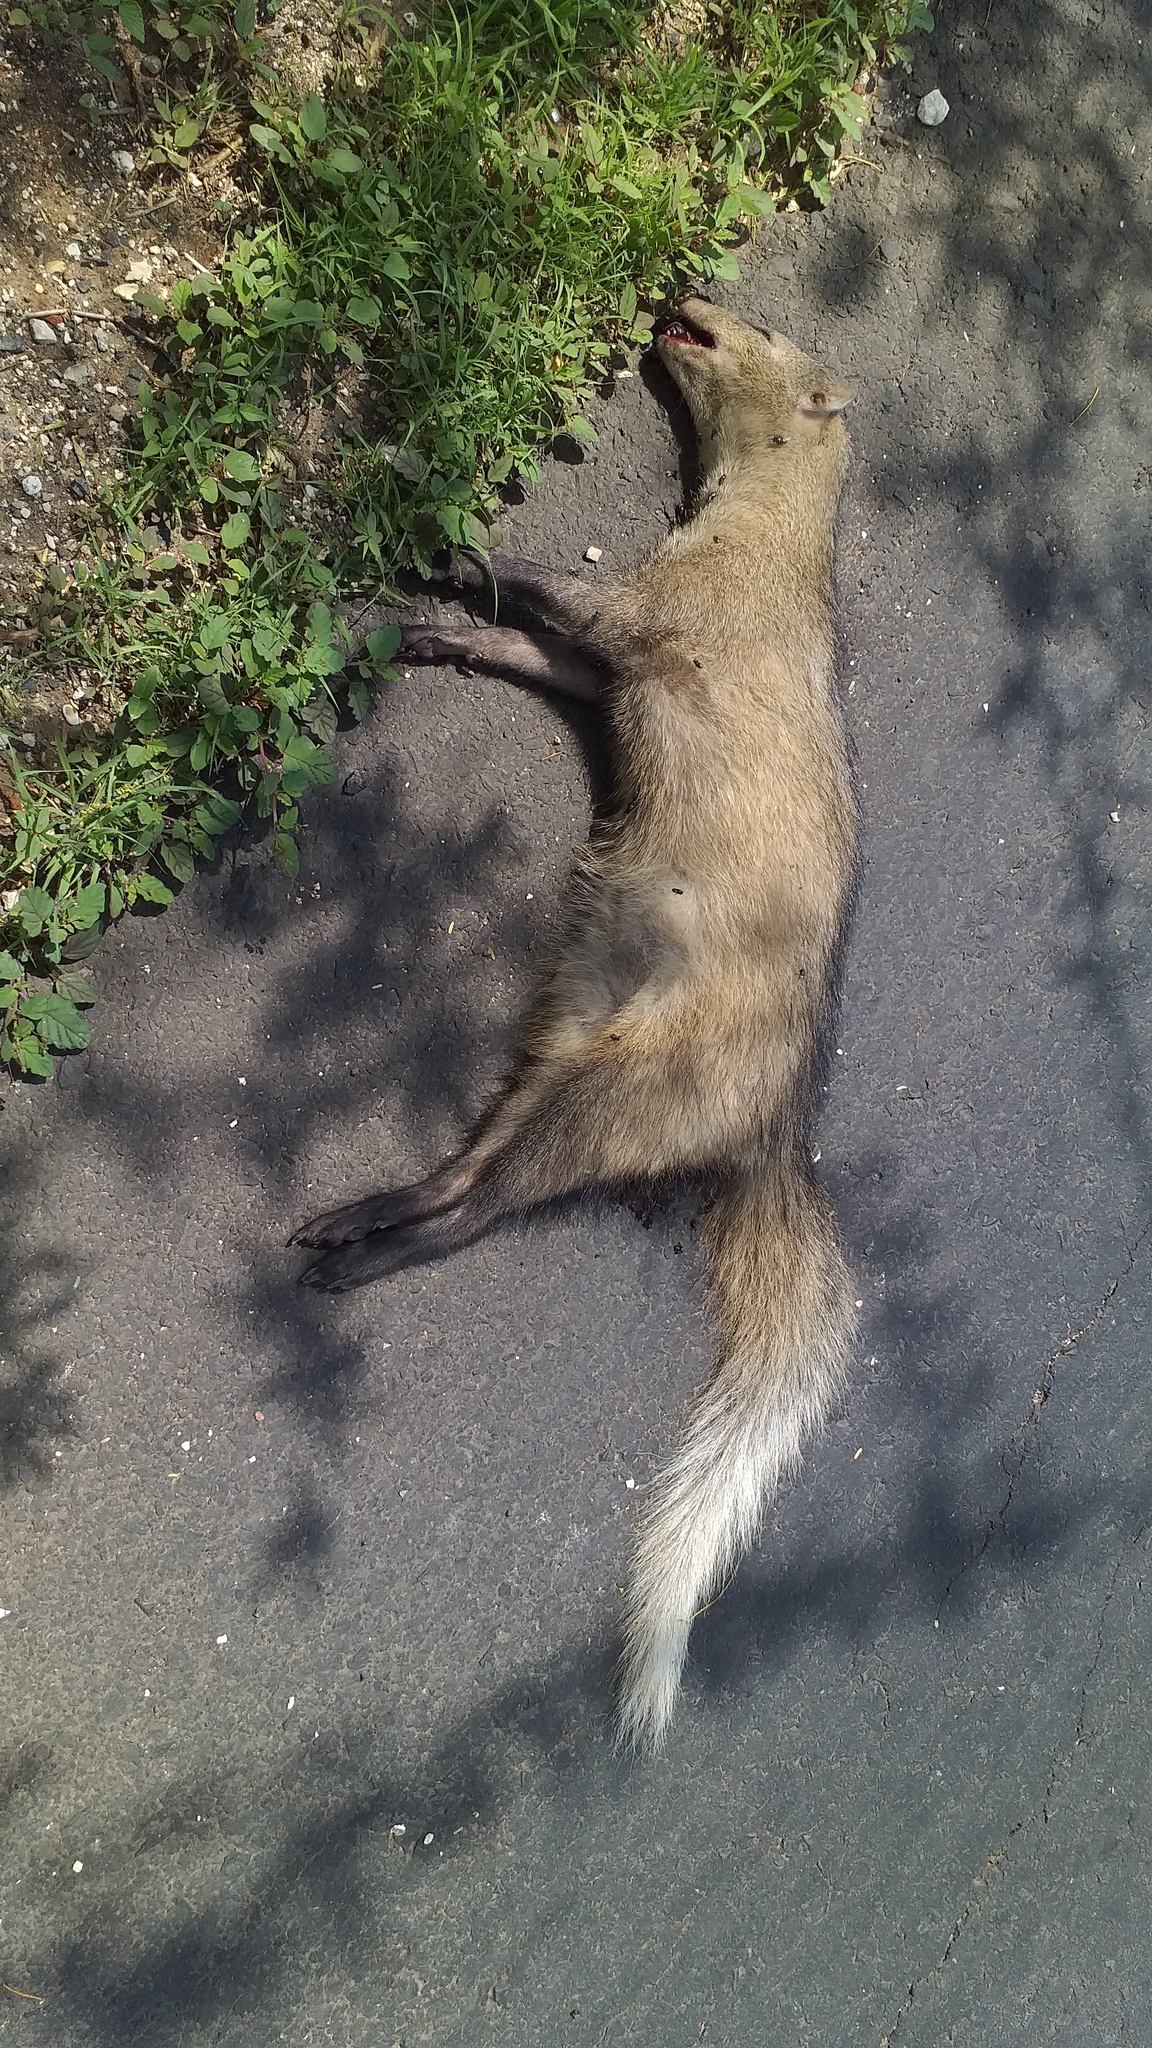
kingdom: Animalia
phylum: Chordata
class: Mammalia
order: Carnivora
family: Herpestidae
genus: Ichneumia
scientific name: Ichneumia albicauda
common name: White-tailed mongoose
